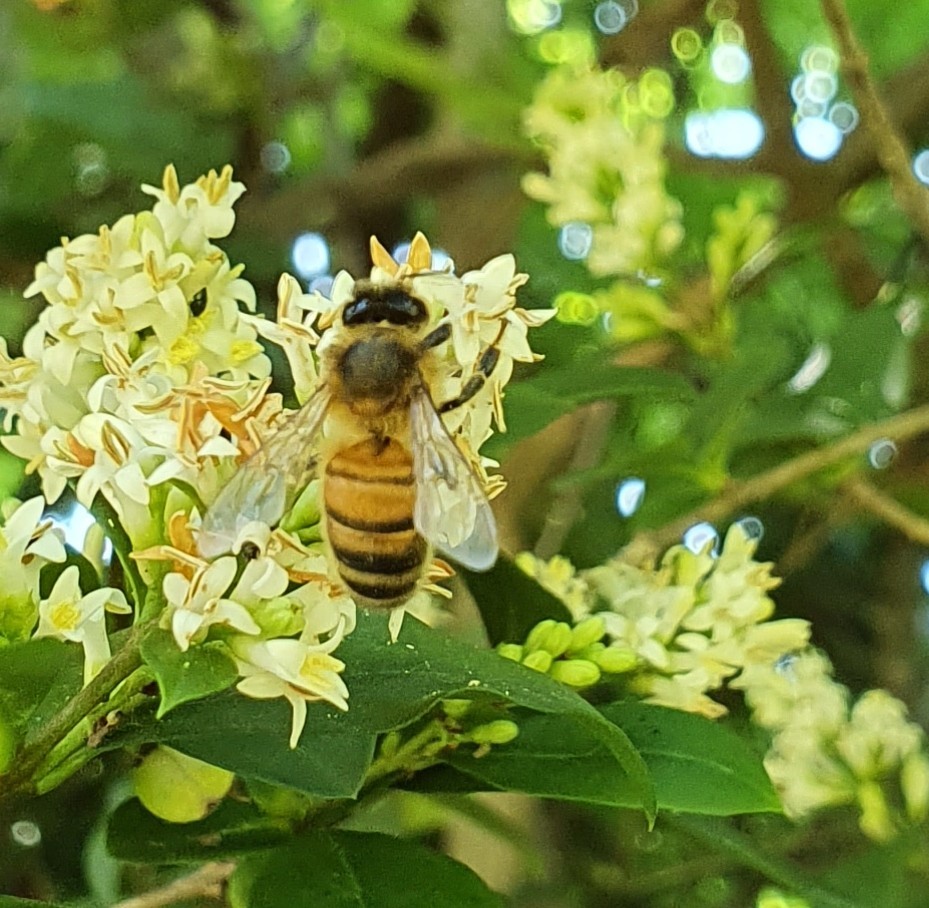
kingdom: Animalia
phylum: Arthropoda
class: Insecta
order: Hymenoptera
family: Apidae
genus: Apis
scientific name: Apis mellifera
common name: Honey bee
